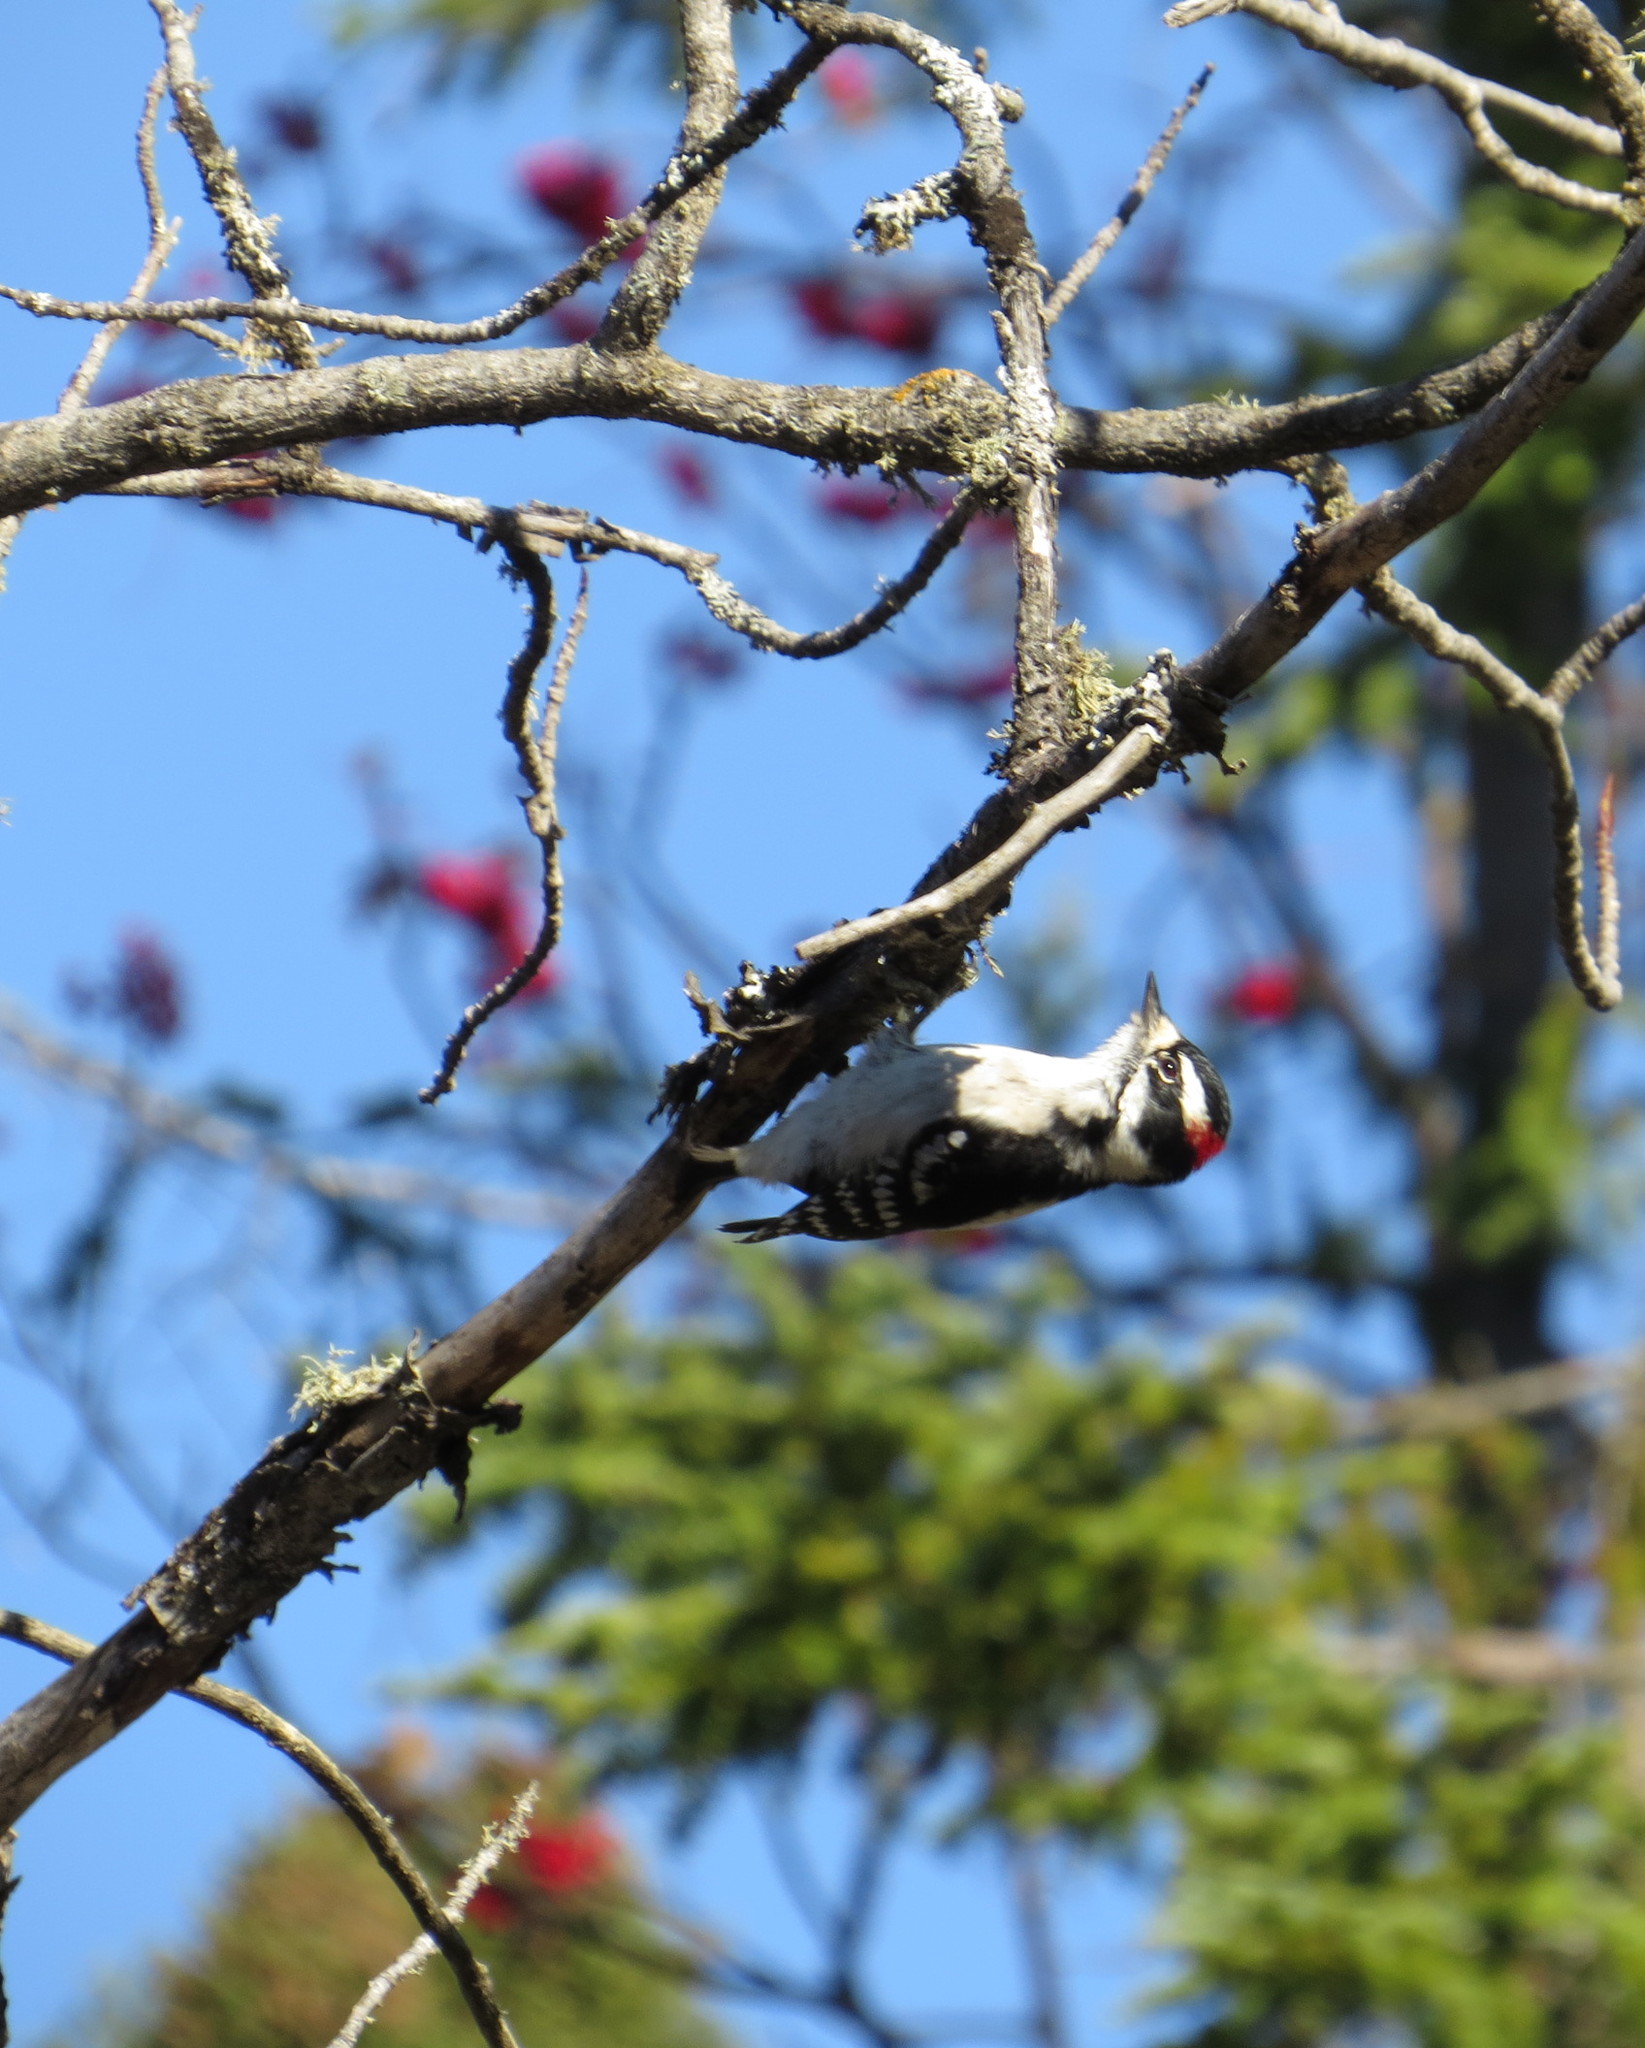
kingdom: Animalia
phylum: Chordata
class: Aves
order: Piciformes
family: Picidae
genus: Dryobates
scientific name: Dryobates pubescens
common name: Downy woodpecker
